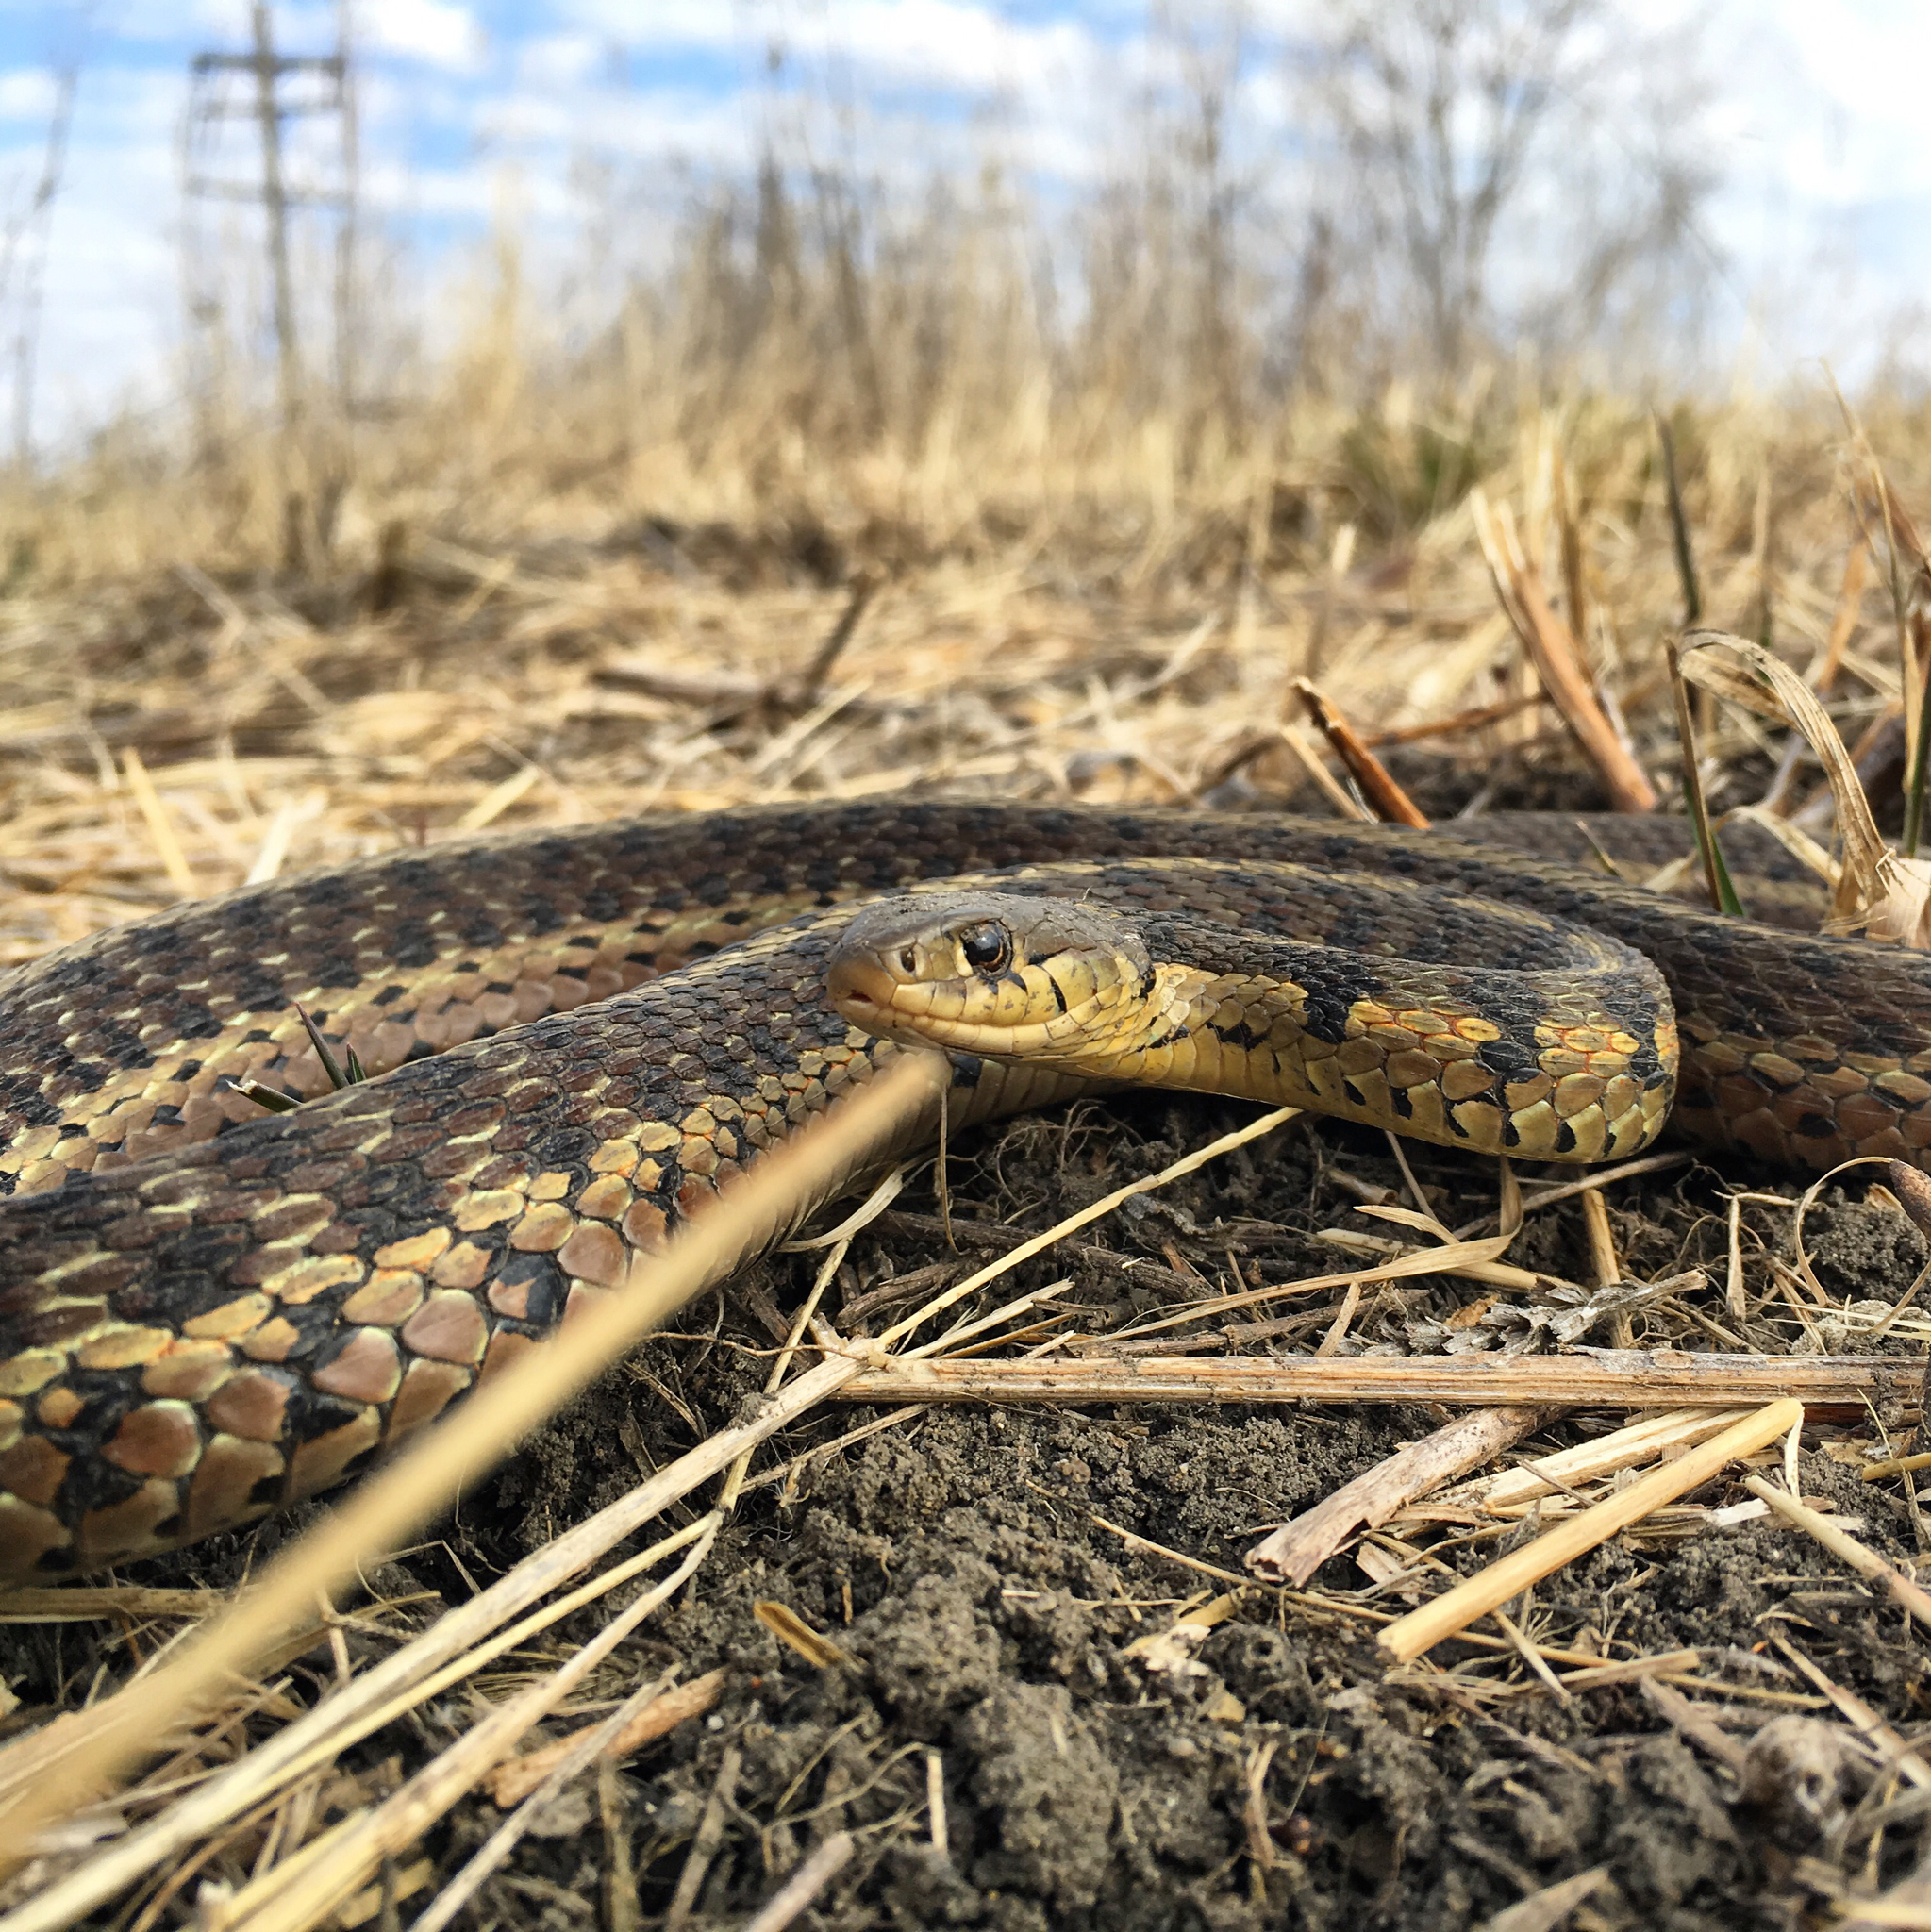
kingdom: Animalia
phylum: Chordata
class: Squamata
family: Colubridae
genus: Thamnophis
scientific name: Thamnophis sirtalis
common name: Common garter snake
